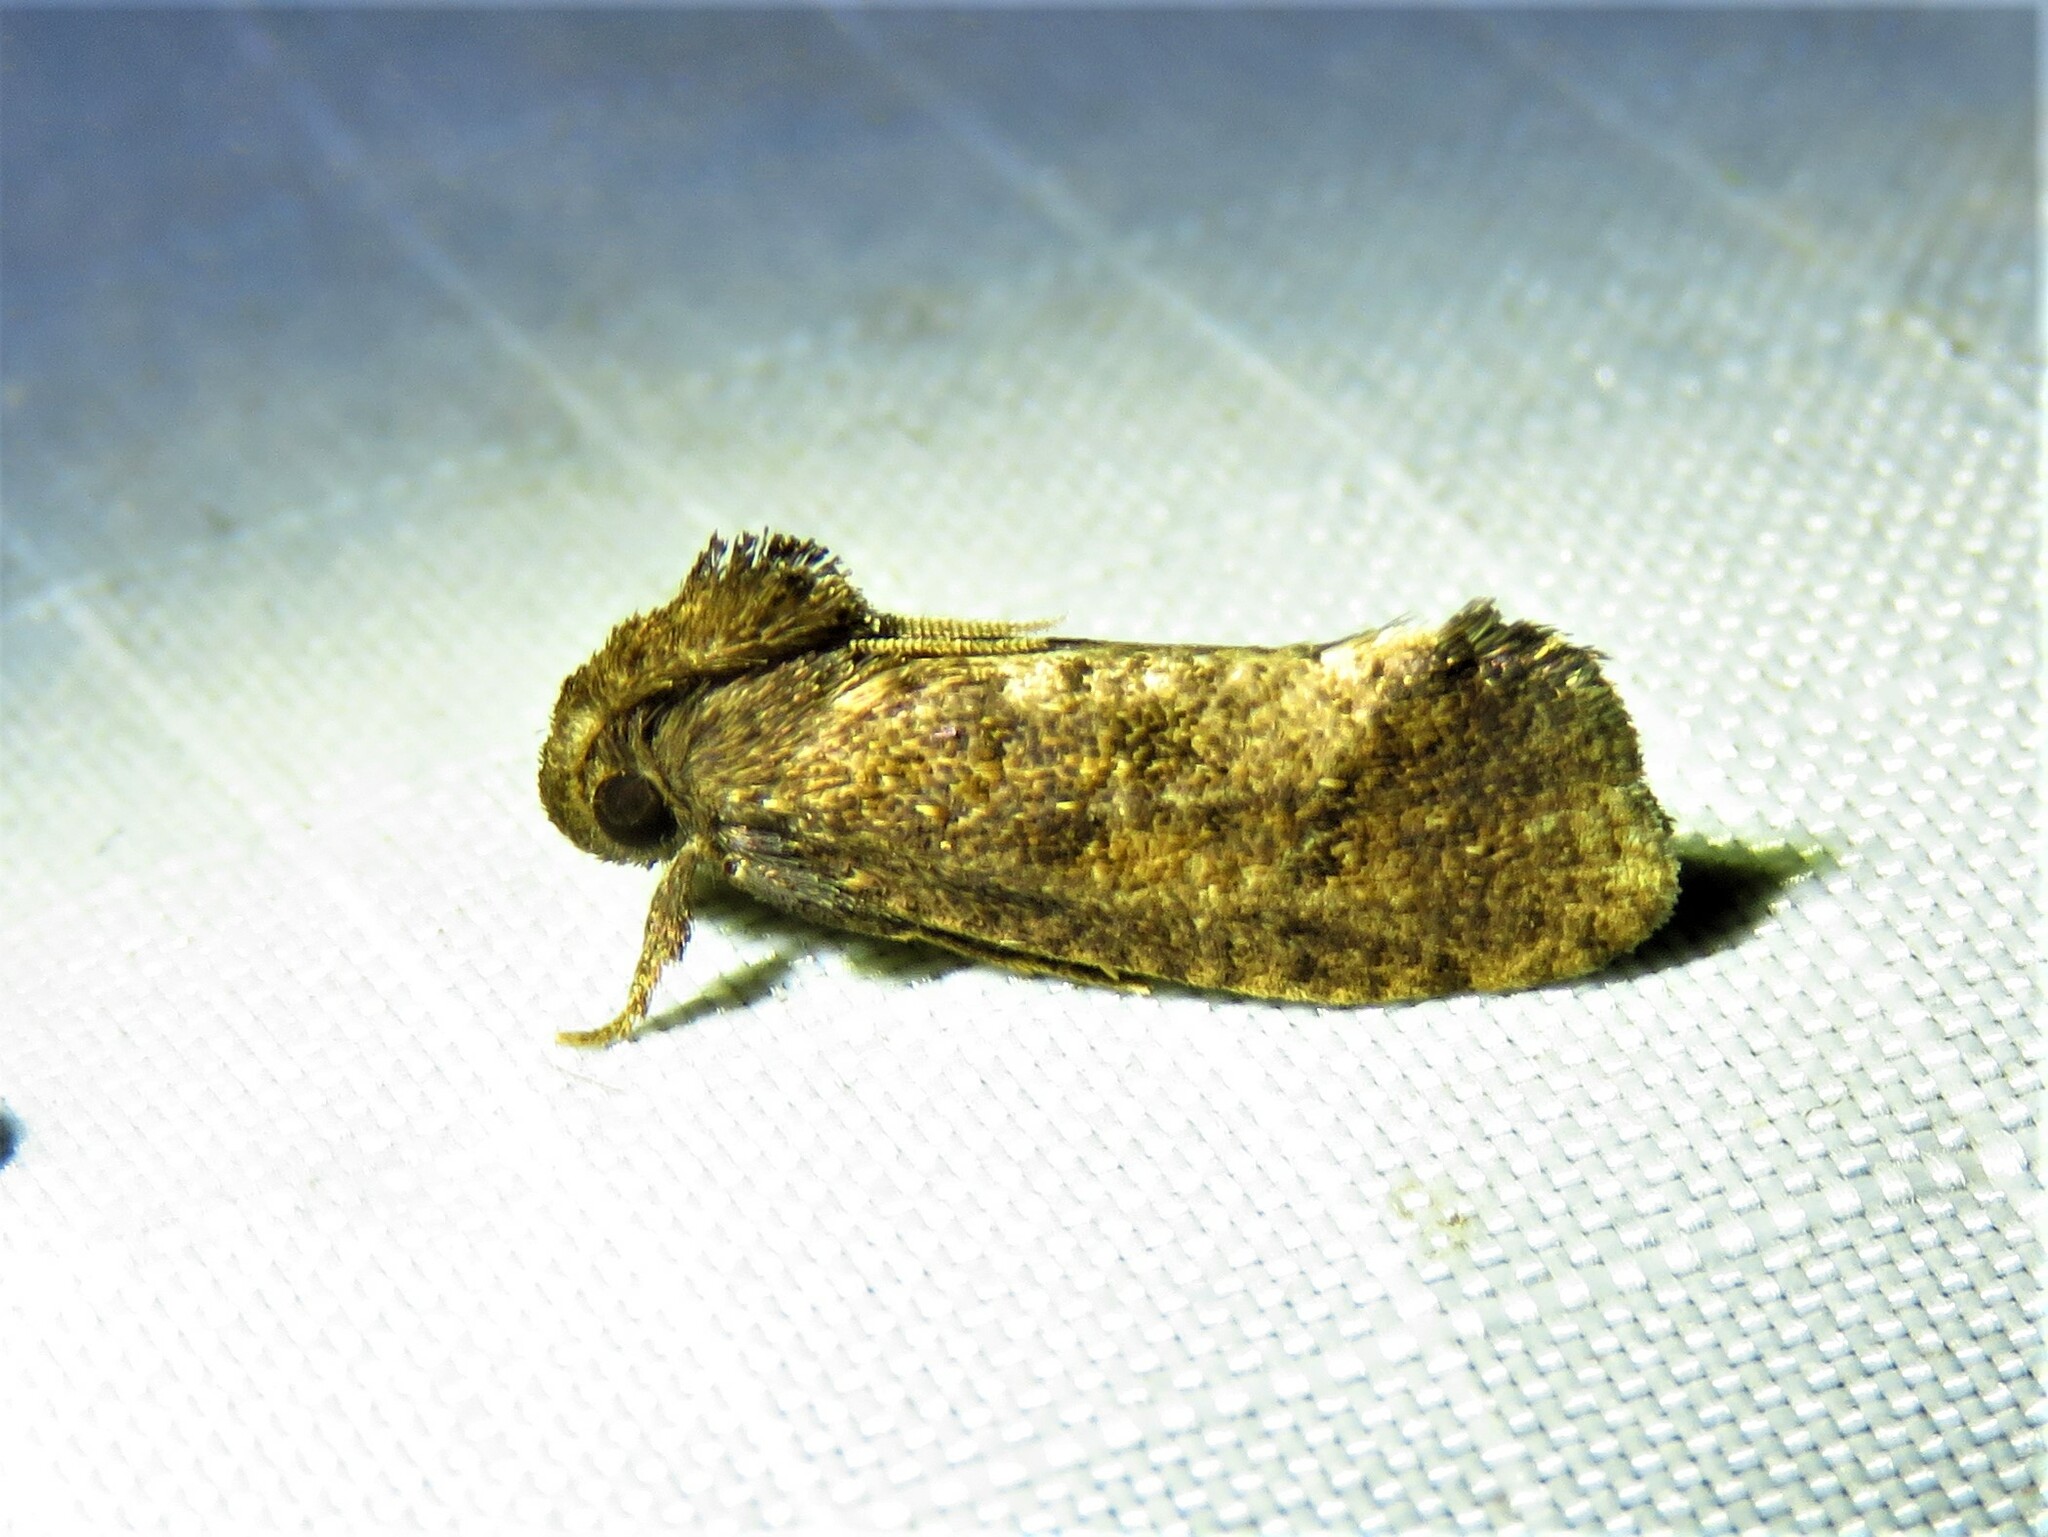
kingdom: Animalia
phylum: Arthropoda
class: Insecta
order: Lepidoptera
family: Tineidae
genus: Acrolophus
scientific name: Acrolophus texanella
